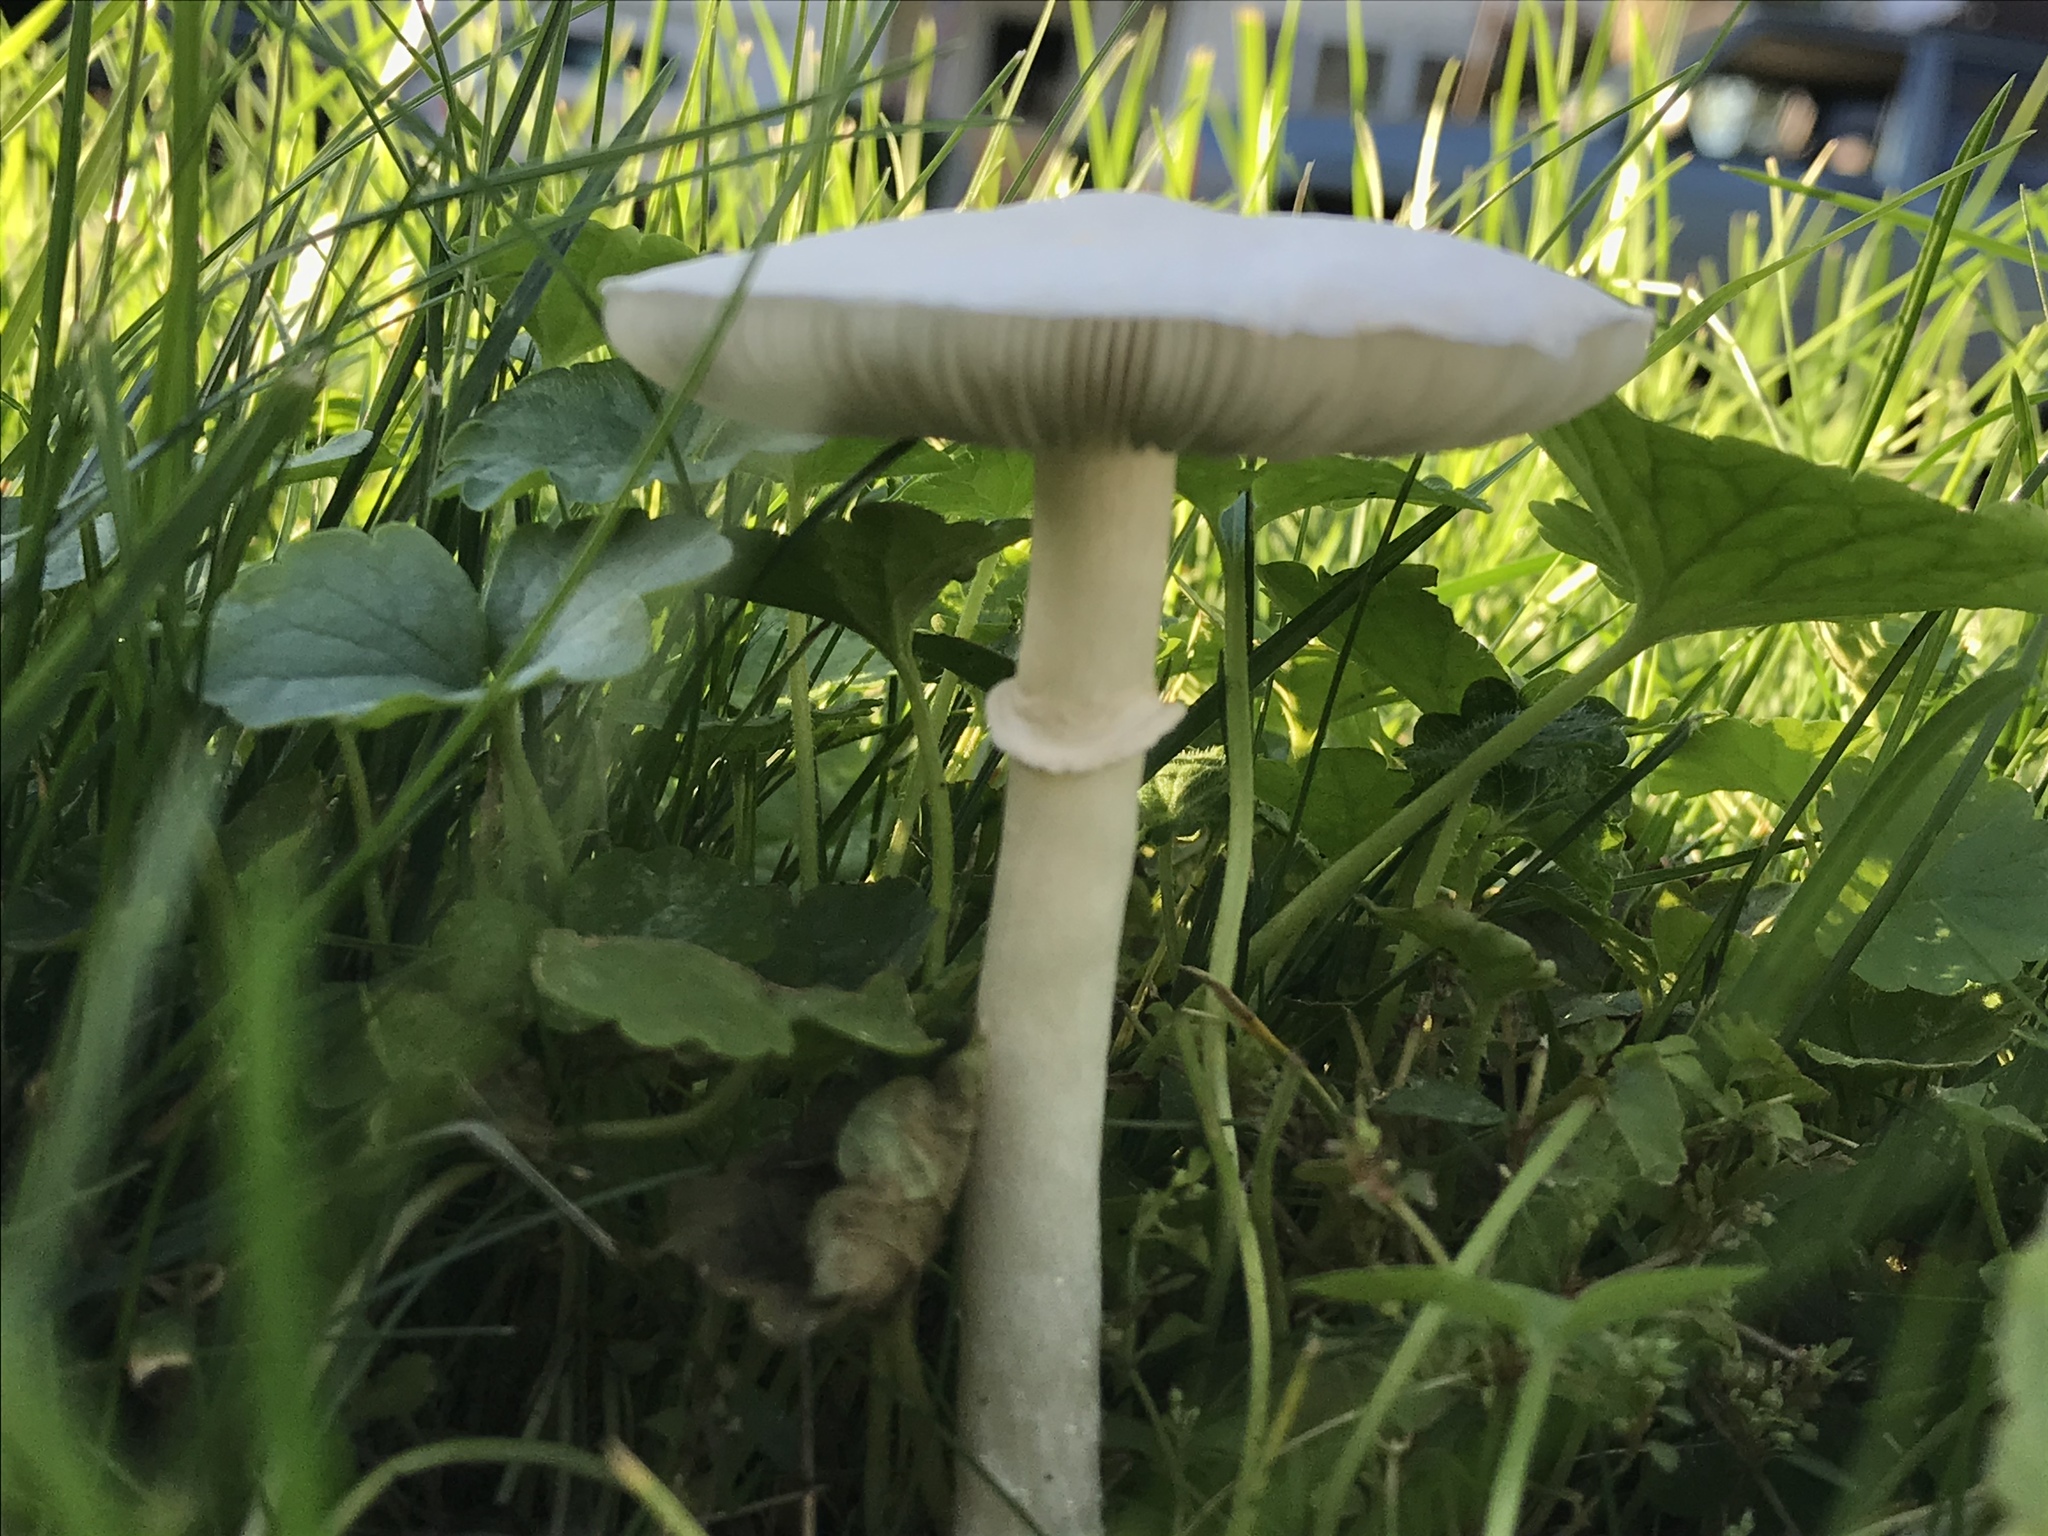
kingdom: Fungi
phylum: Basidiomycota
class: Agaricomycetes
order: Agaricales
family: Agaricaceae
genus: Leucoagaricus
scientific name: Leucoagaricus leucothites
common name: White dapperling
